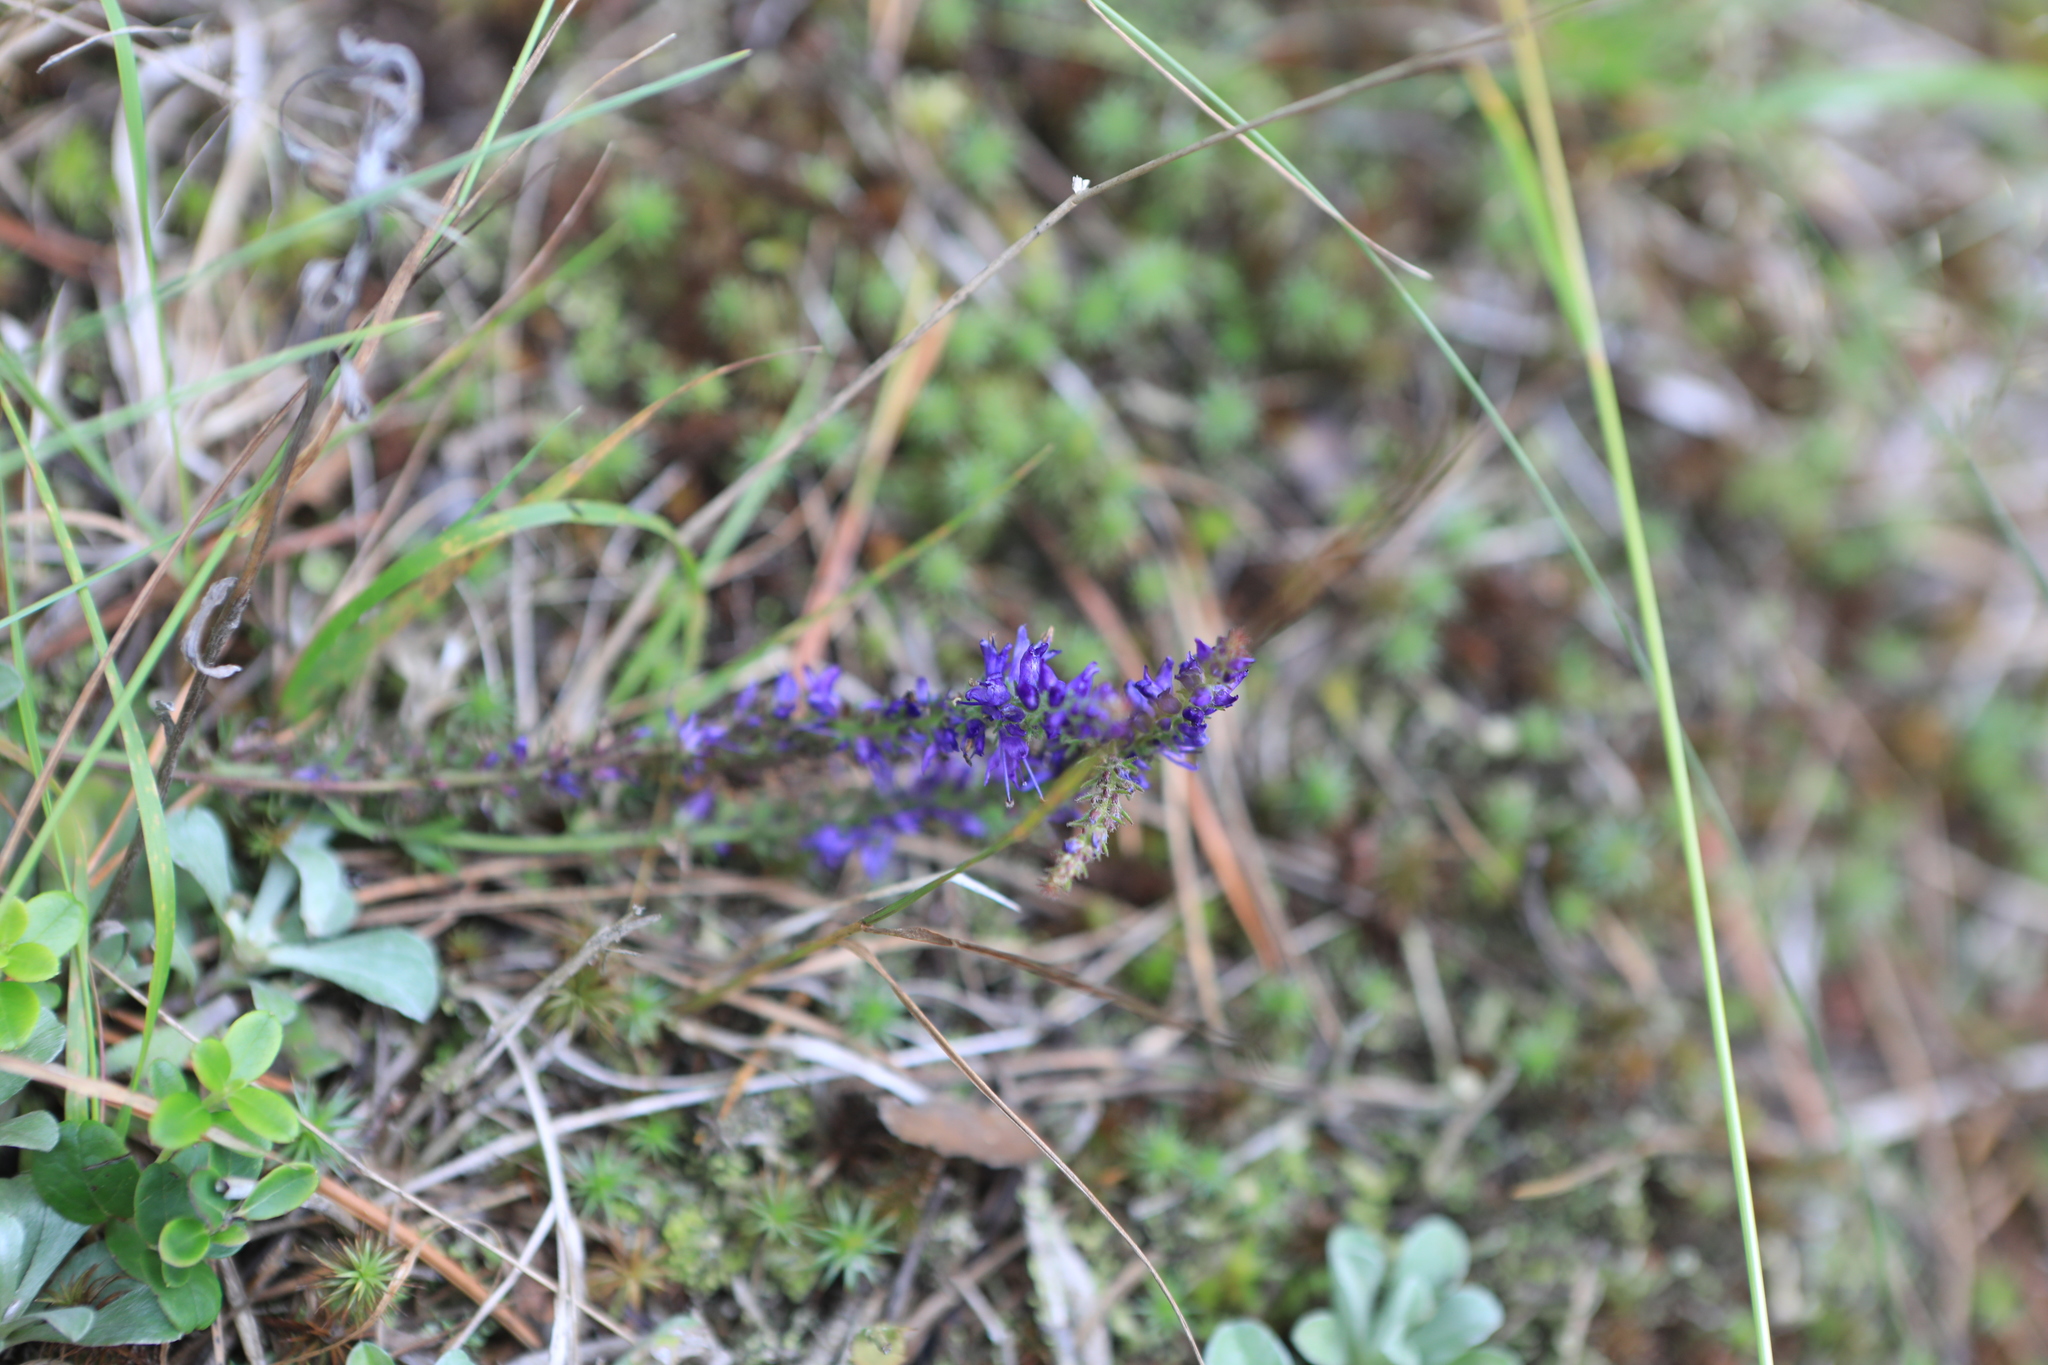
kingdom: Plantae
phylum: Tracheophyta
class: Magnoliopsida
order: Lamiales
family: Plantaginaceae
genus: Veronica
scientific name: Veronica spicata
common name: Spiked speedwell
